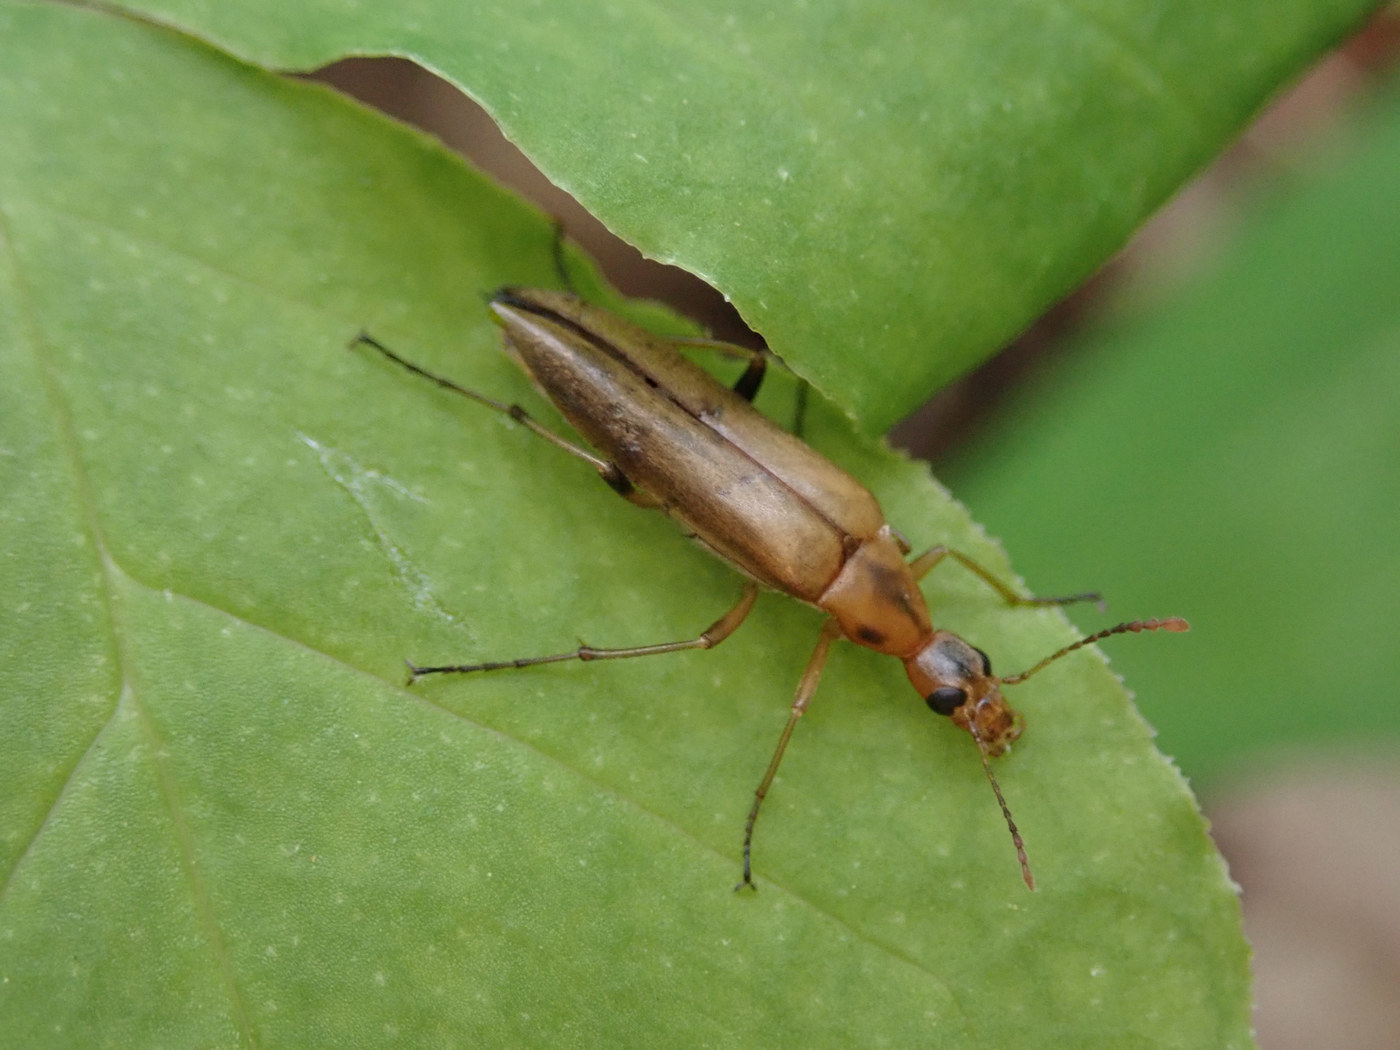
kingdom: Animalia
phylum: Arthropoda
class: Insecta
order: Coleoptera
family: Stenotrachelidae
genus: Cephaloon
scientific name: Cephaloon lepturides
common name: False leptura beetle
